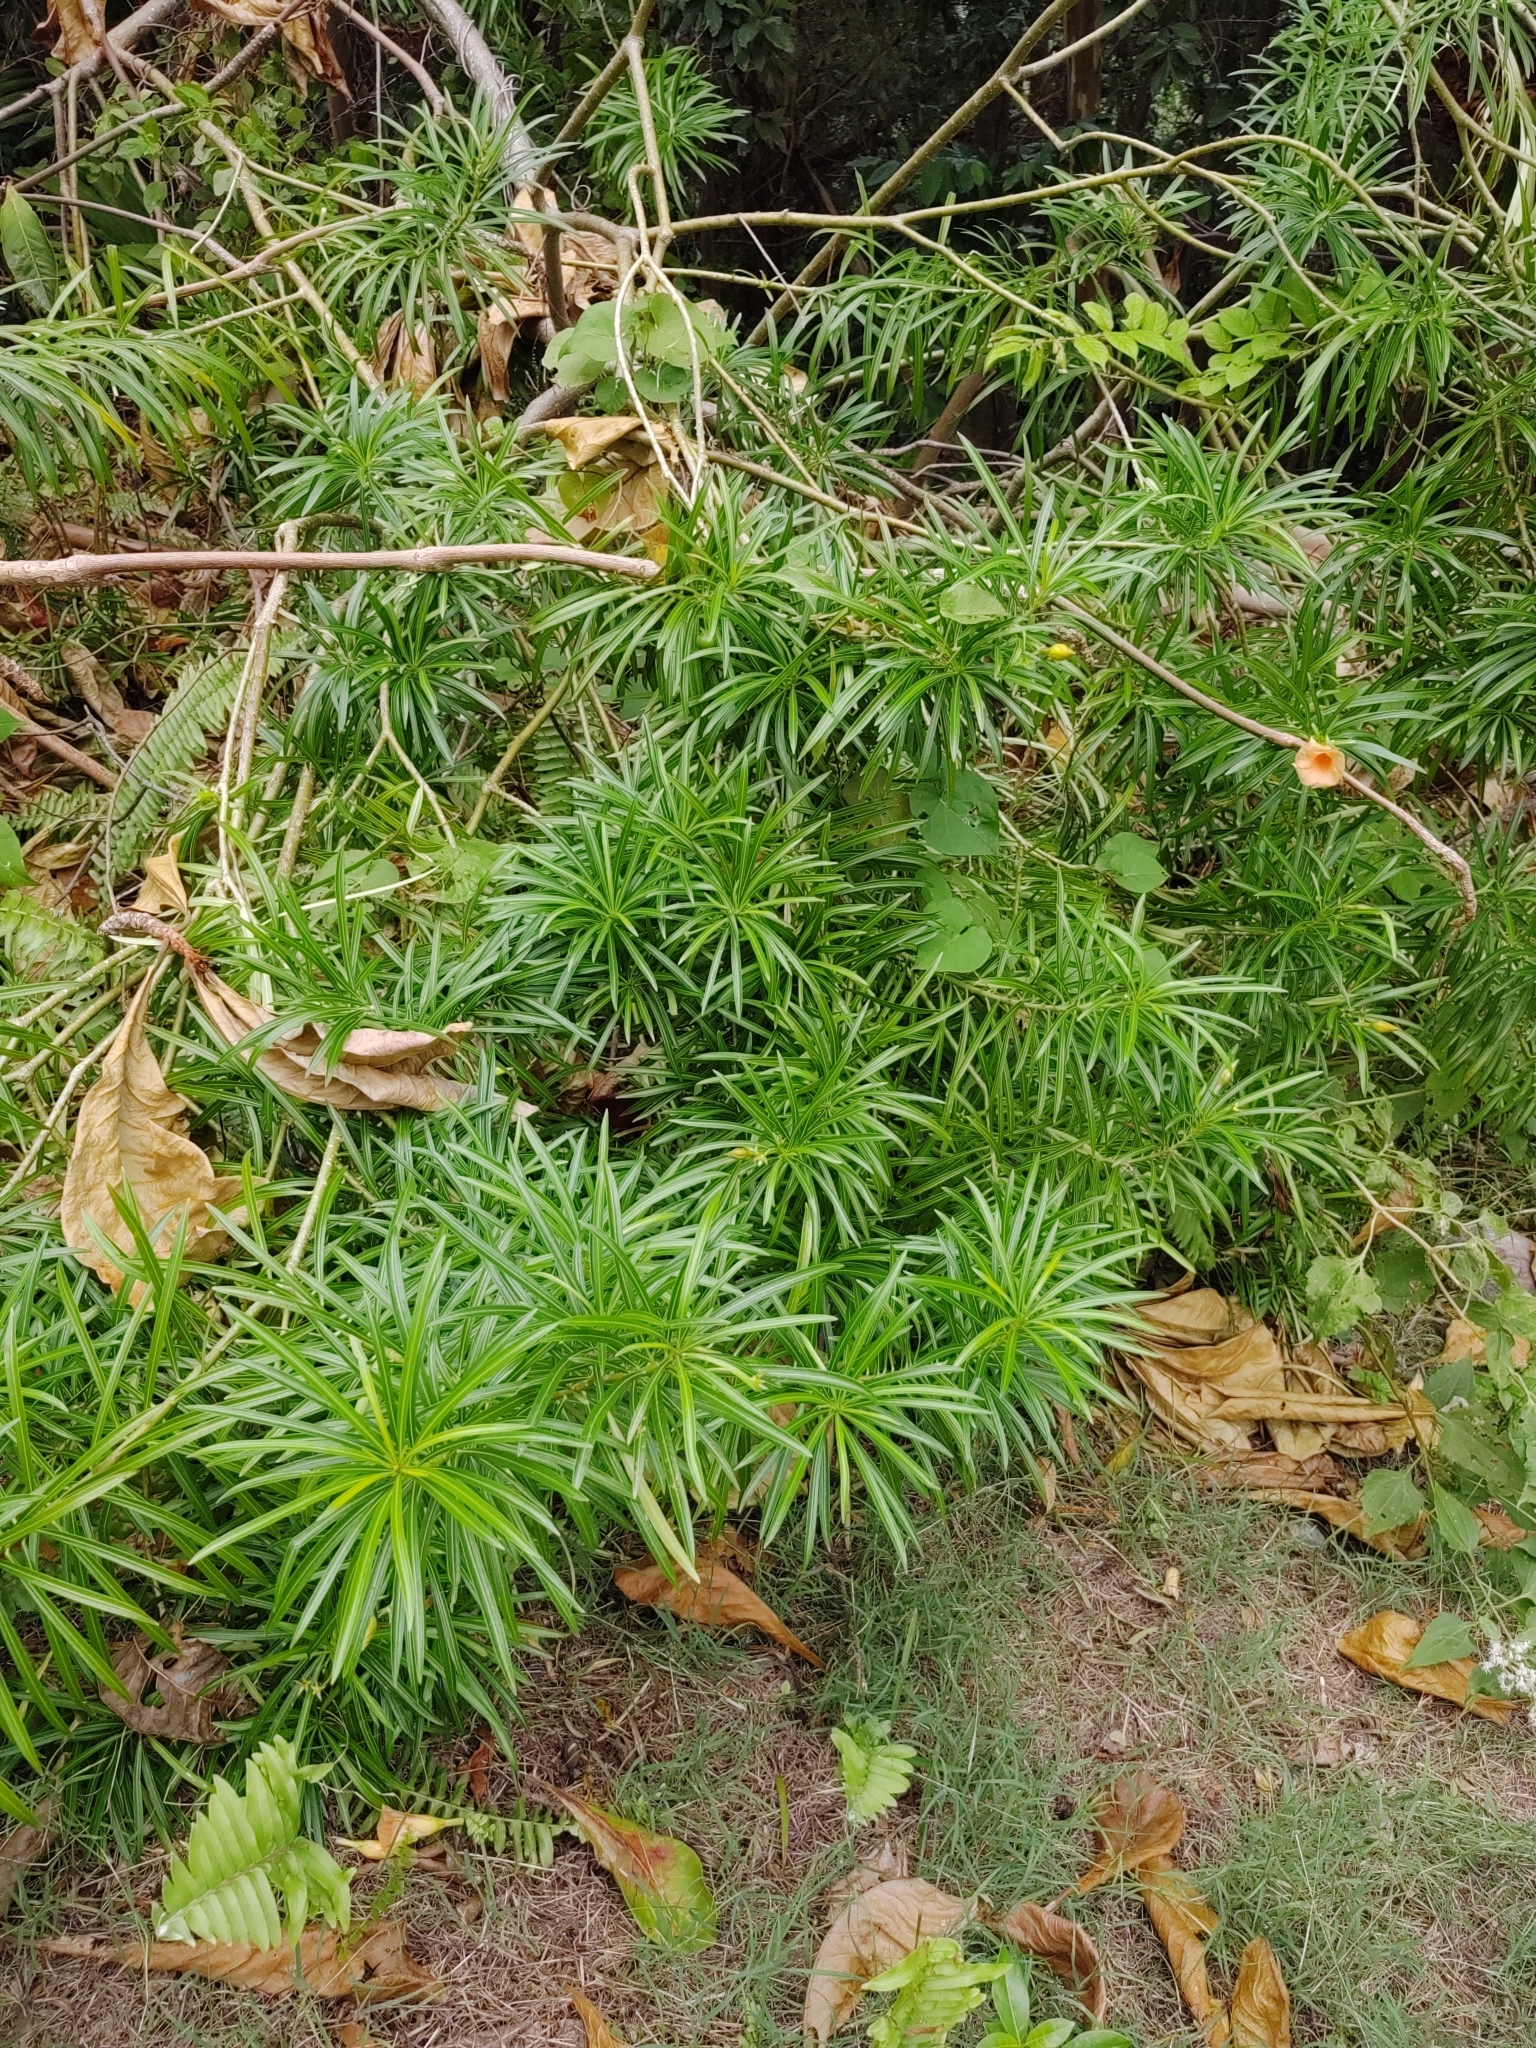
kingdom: Plantae
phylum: Tracheophyta
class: Magnoliopsida
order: Gentianales
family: Apocynaceae
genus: Cascabela
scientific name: Cascabela thevetia
